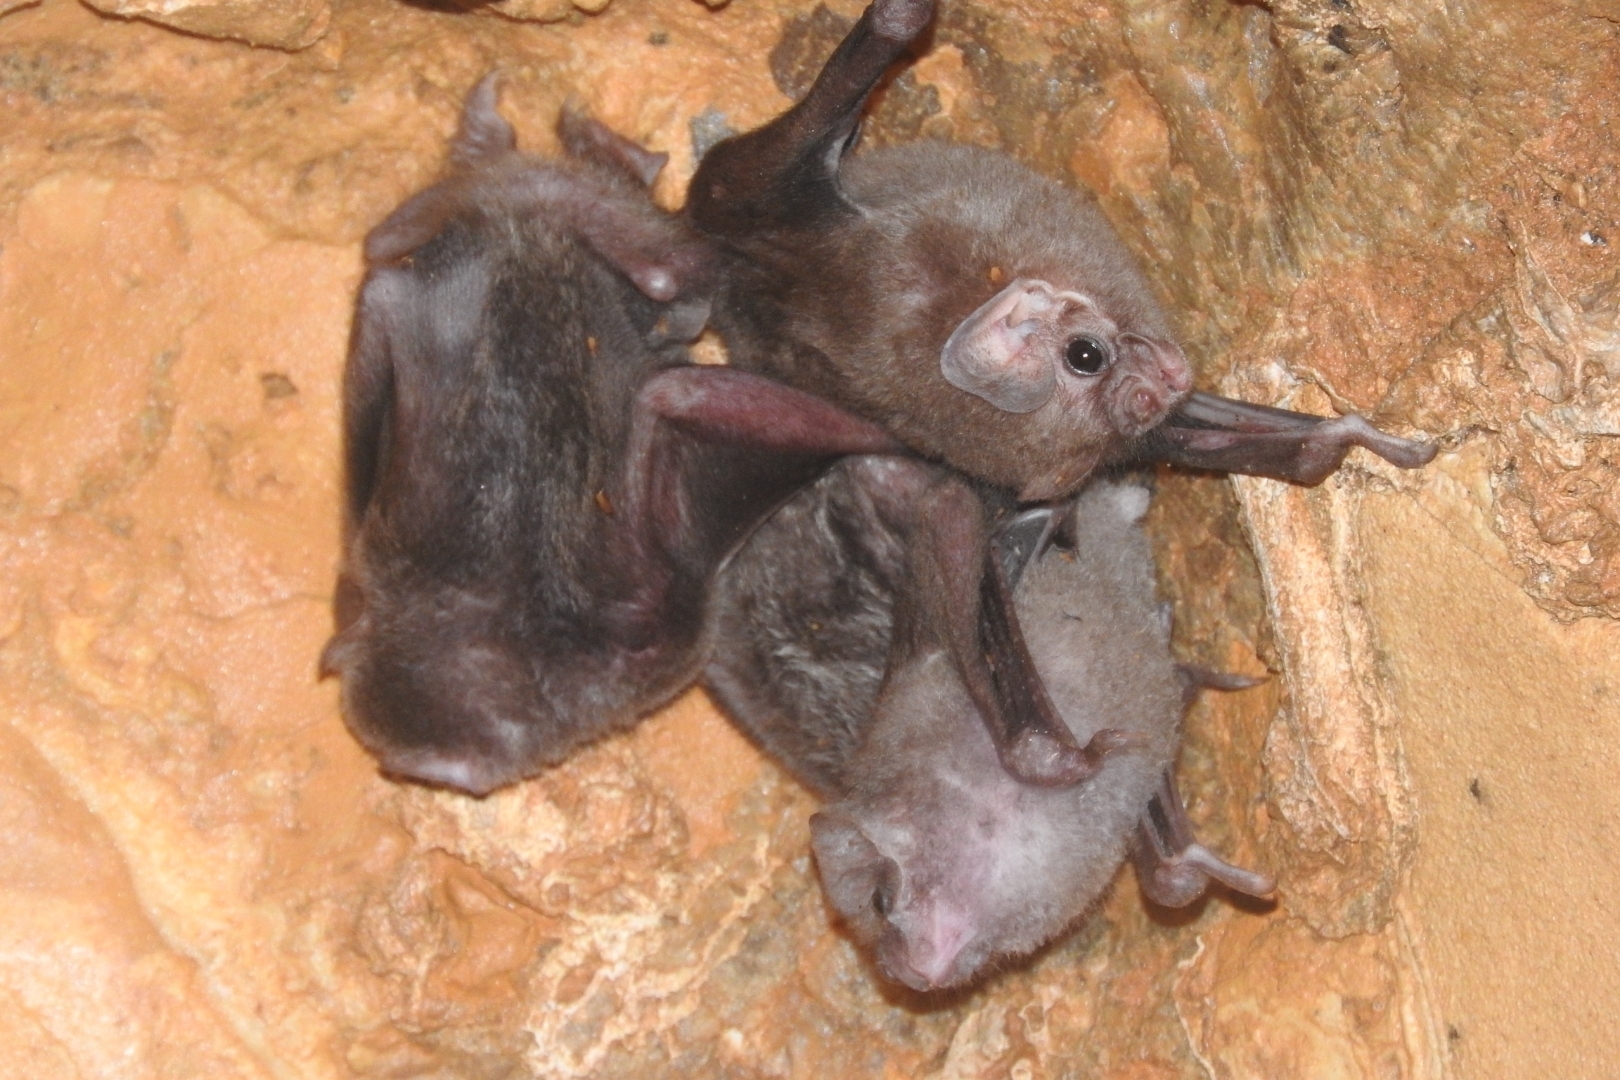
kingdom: Animalia
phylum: Chordata
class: Mammalia
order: Chiroptera
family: Phyllostomidae
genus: Diphylla
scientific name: Diphylla ecaudata
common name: Hairy-legged vampire bat
